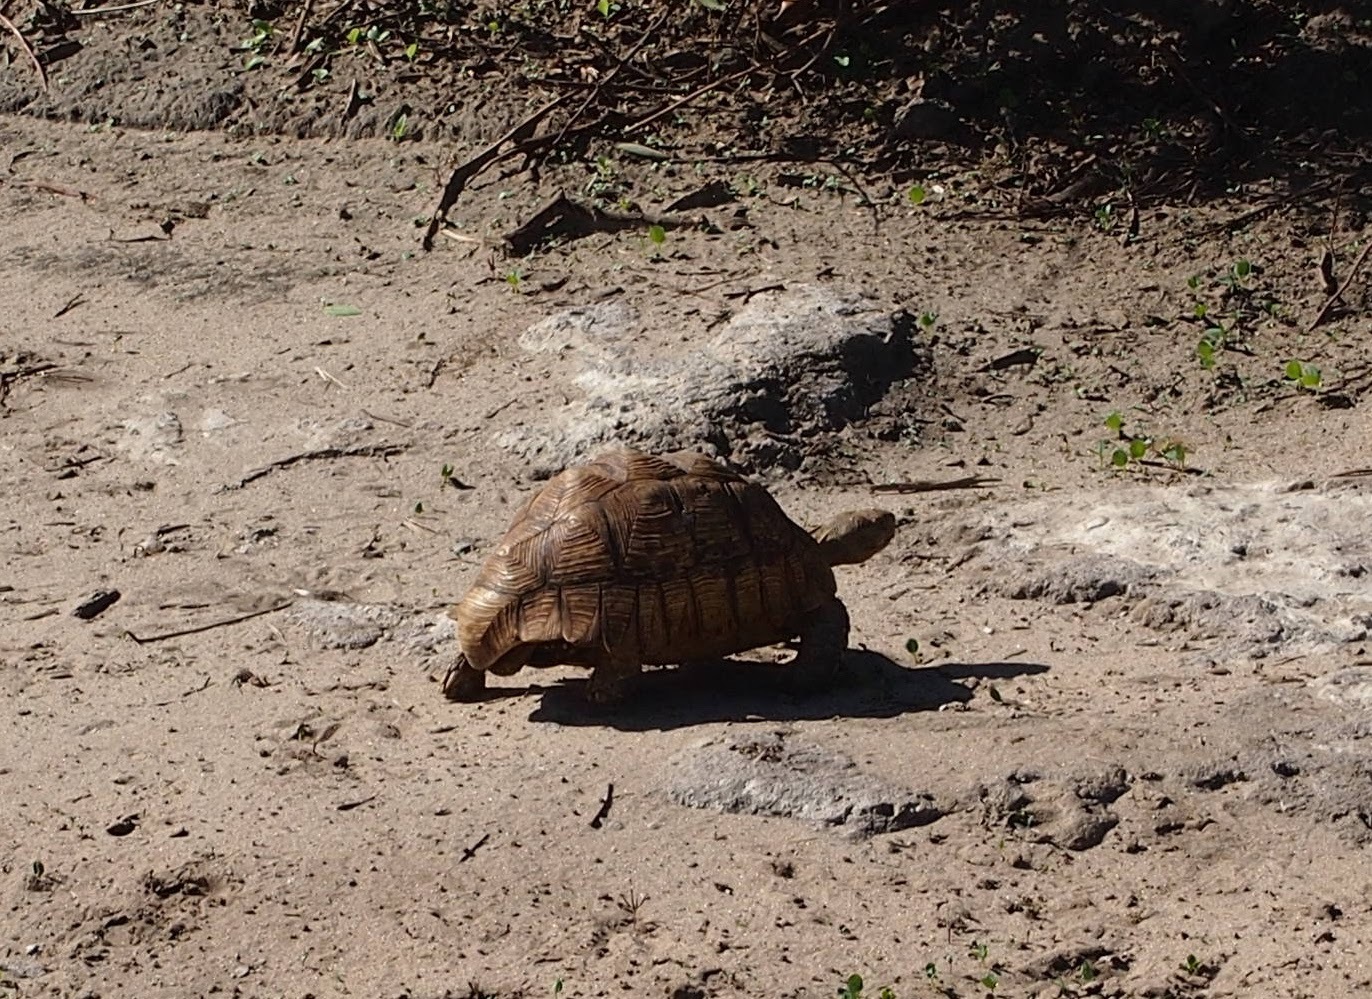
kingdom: Animalia
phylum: Chordata
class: Testudines
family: Testudinidae
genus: Stigmochelys
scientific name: Stigmochelys pardalis
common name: Leopard tortoise
